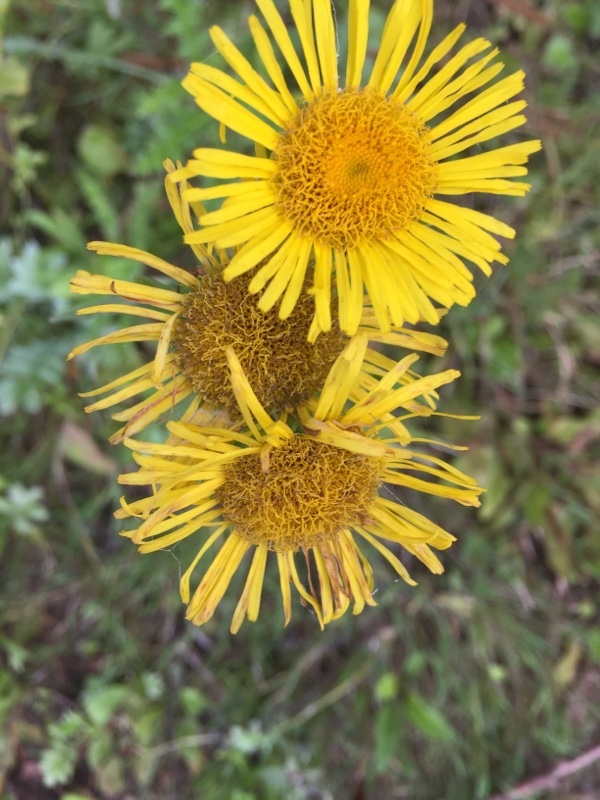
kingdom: Plantae
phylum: Tracheophyta
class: Magnoliopsida
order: Asterales
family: Asteraceae
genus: Pentanema
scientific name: Pentanema britannicum
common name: British elecampane
